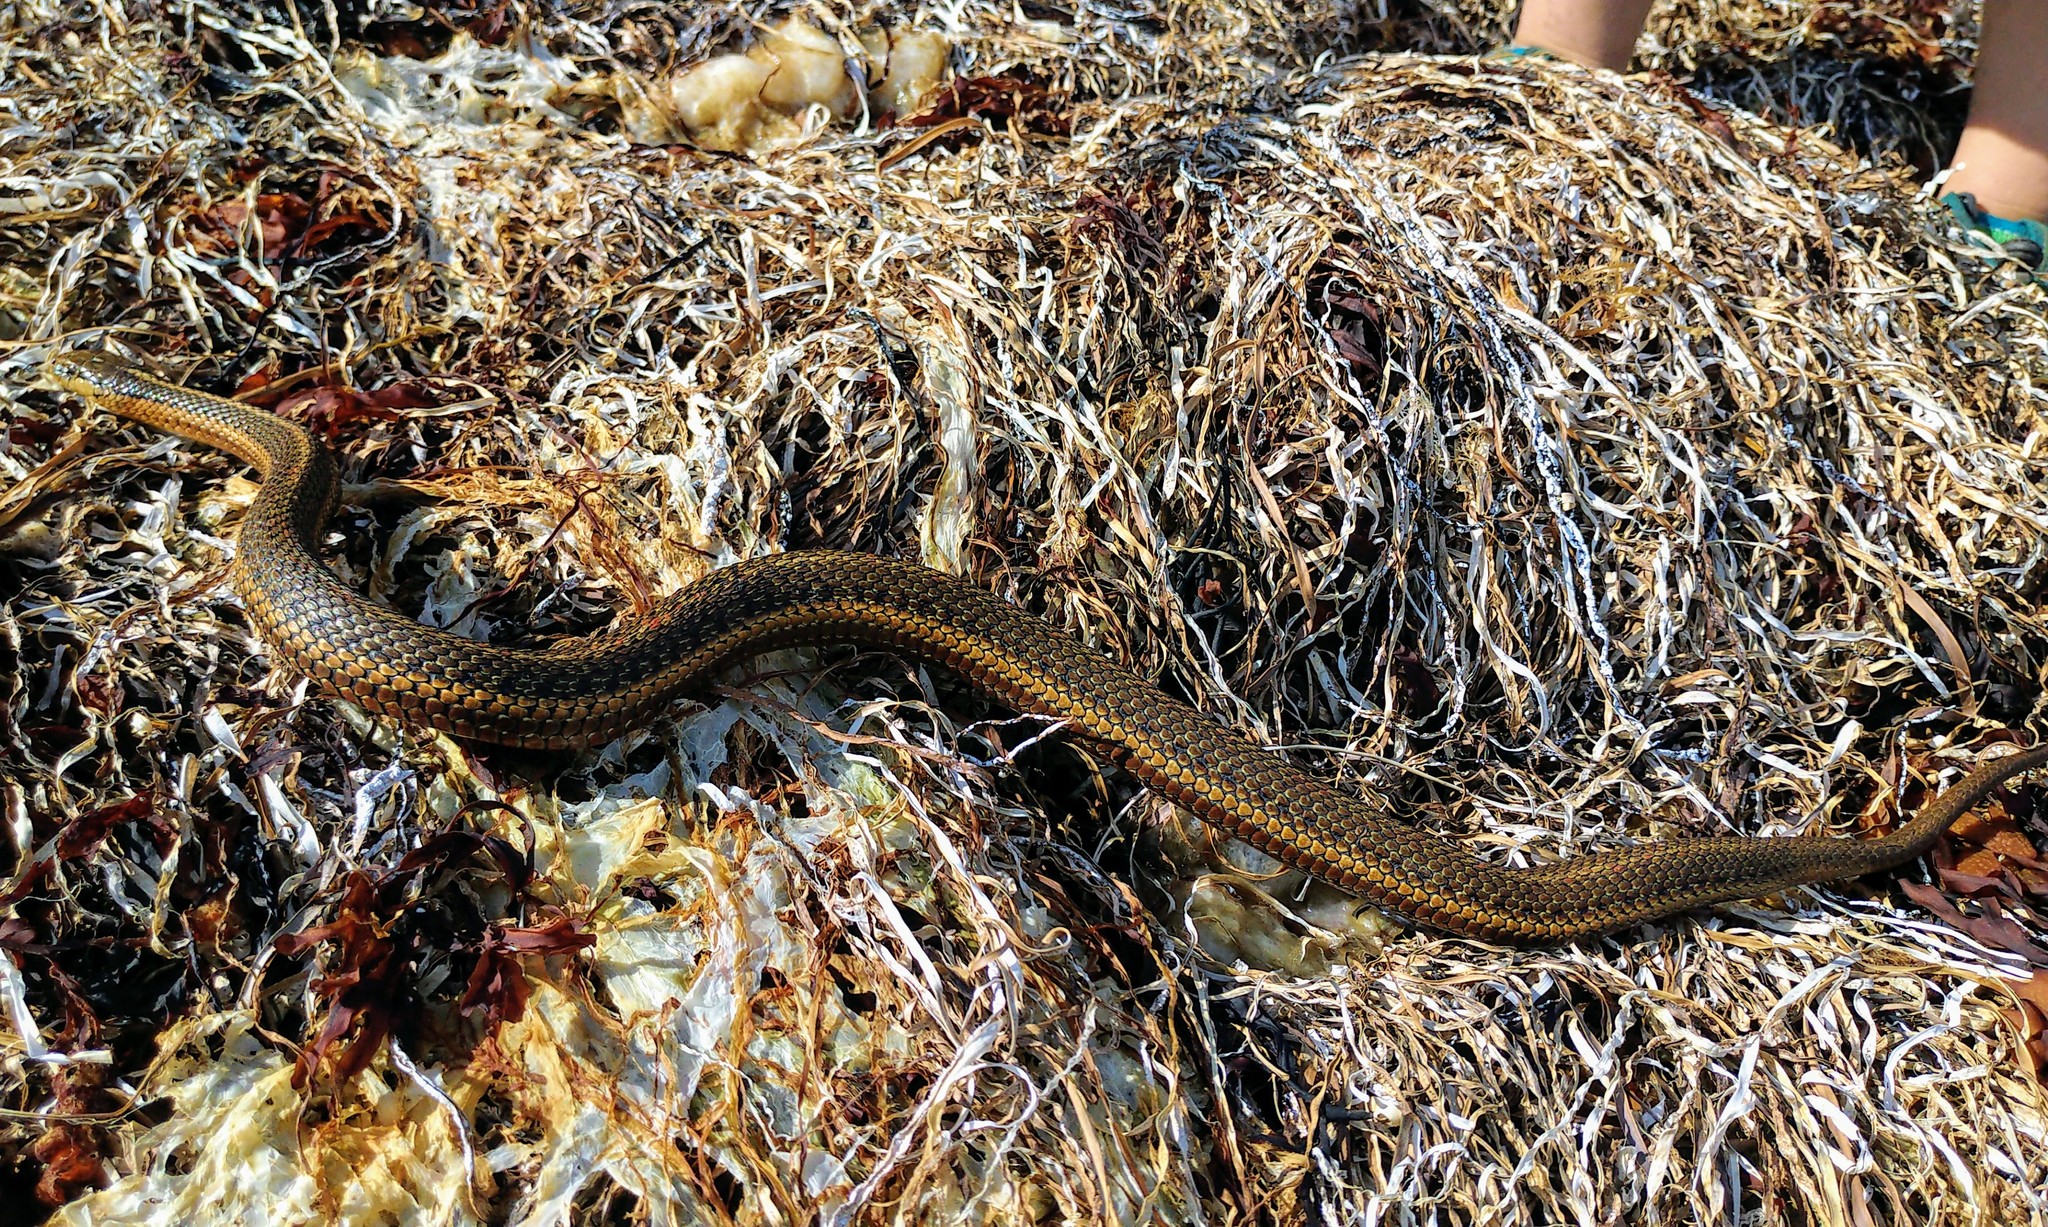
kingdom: Animalia
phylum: Chordata
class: Squamata
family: Colubridae
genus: Thamnophis
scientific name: Thamnophis ordinoides
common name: Northwestern garter snake
